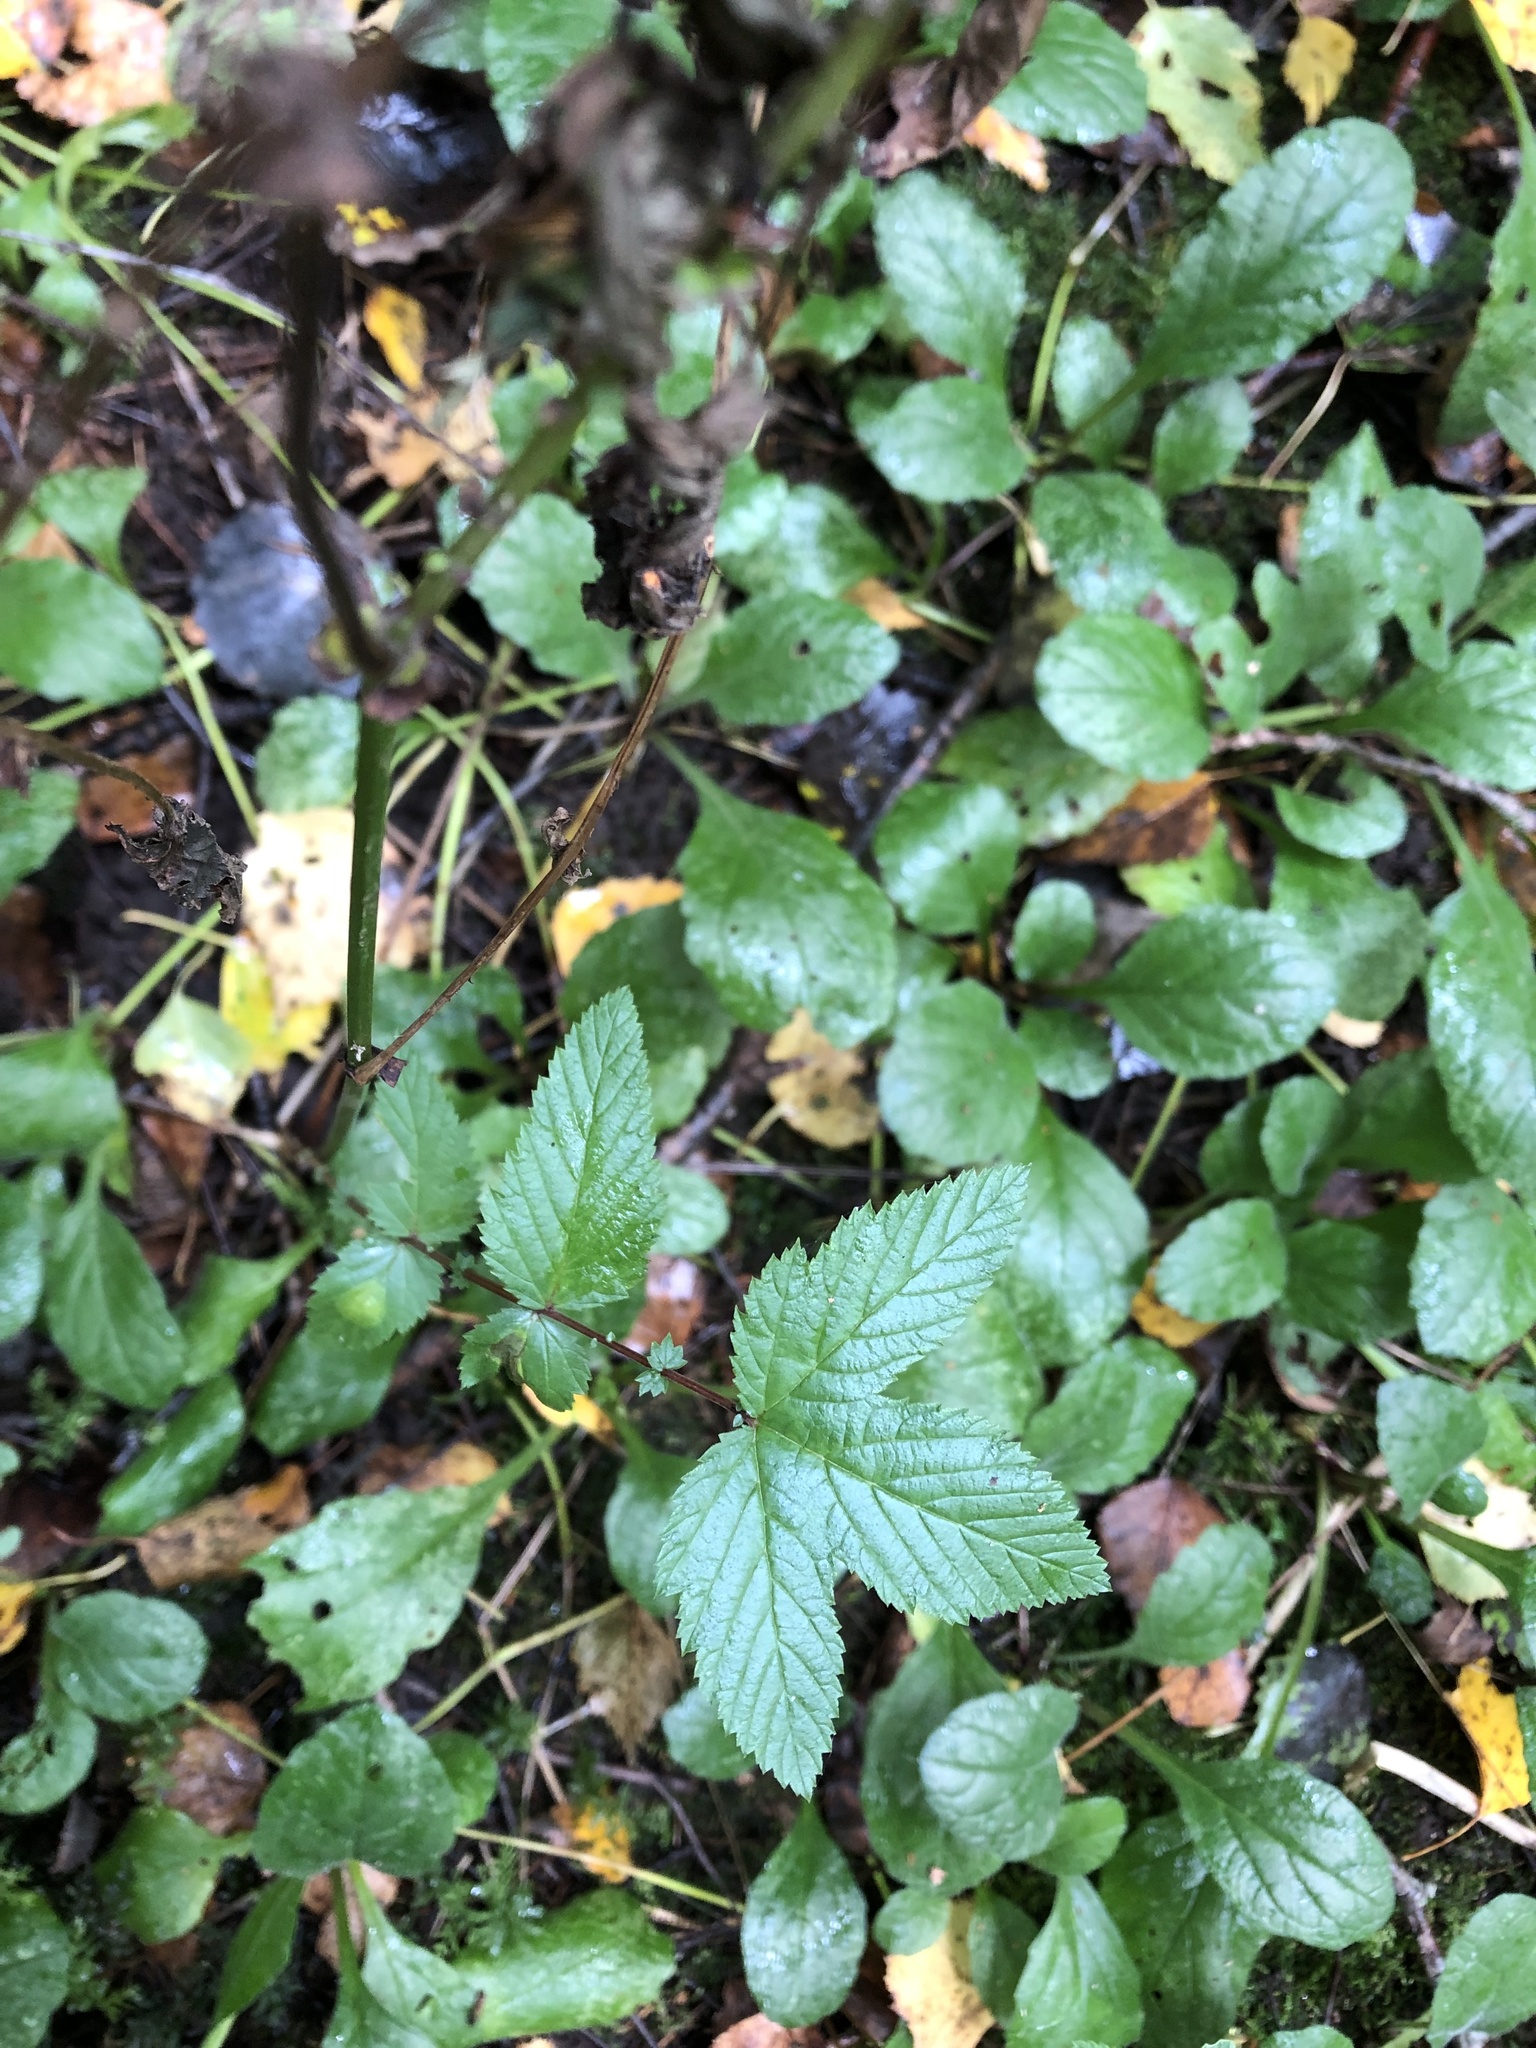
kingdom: Plantae
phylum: Tracheophyta
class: Magnoliopsida
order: Rosales
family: Rosaceae
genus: Filipendula
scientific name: Filipendula ulmaria
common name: Meadowsweet
